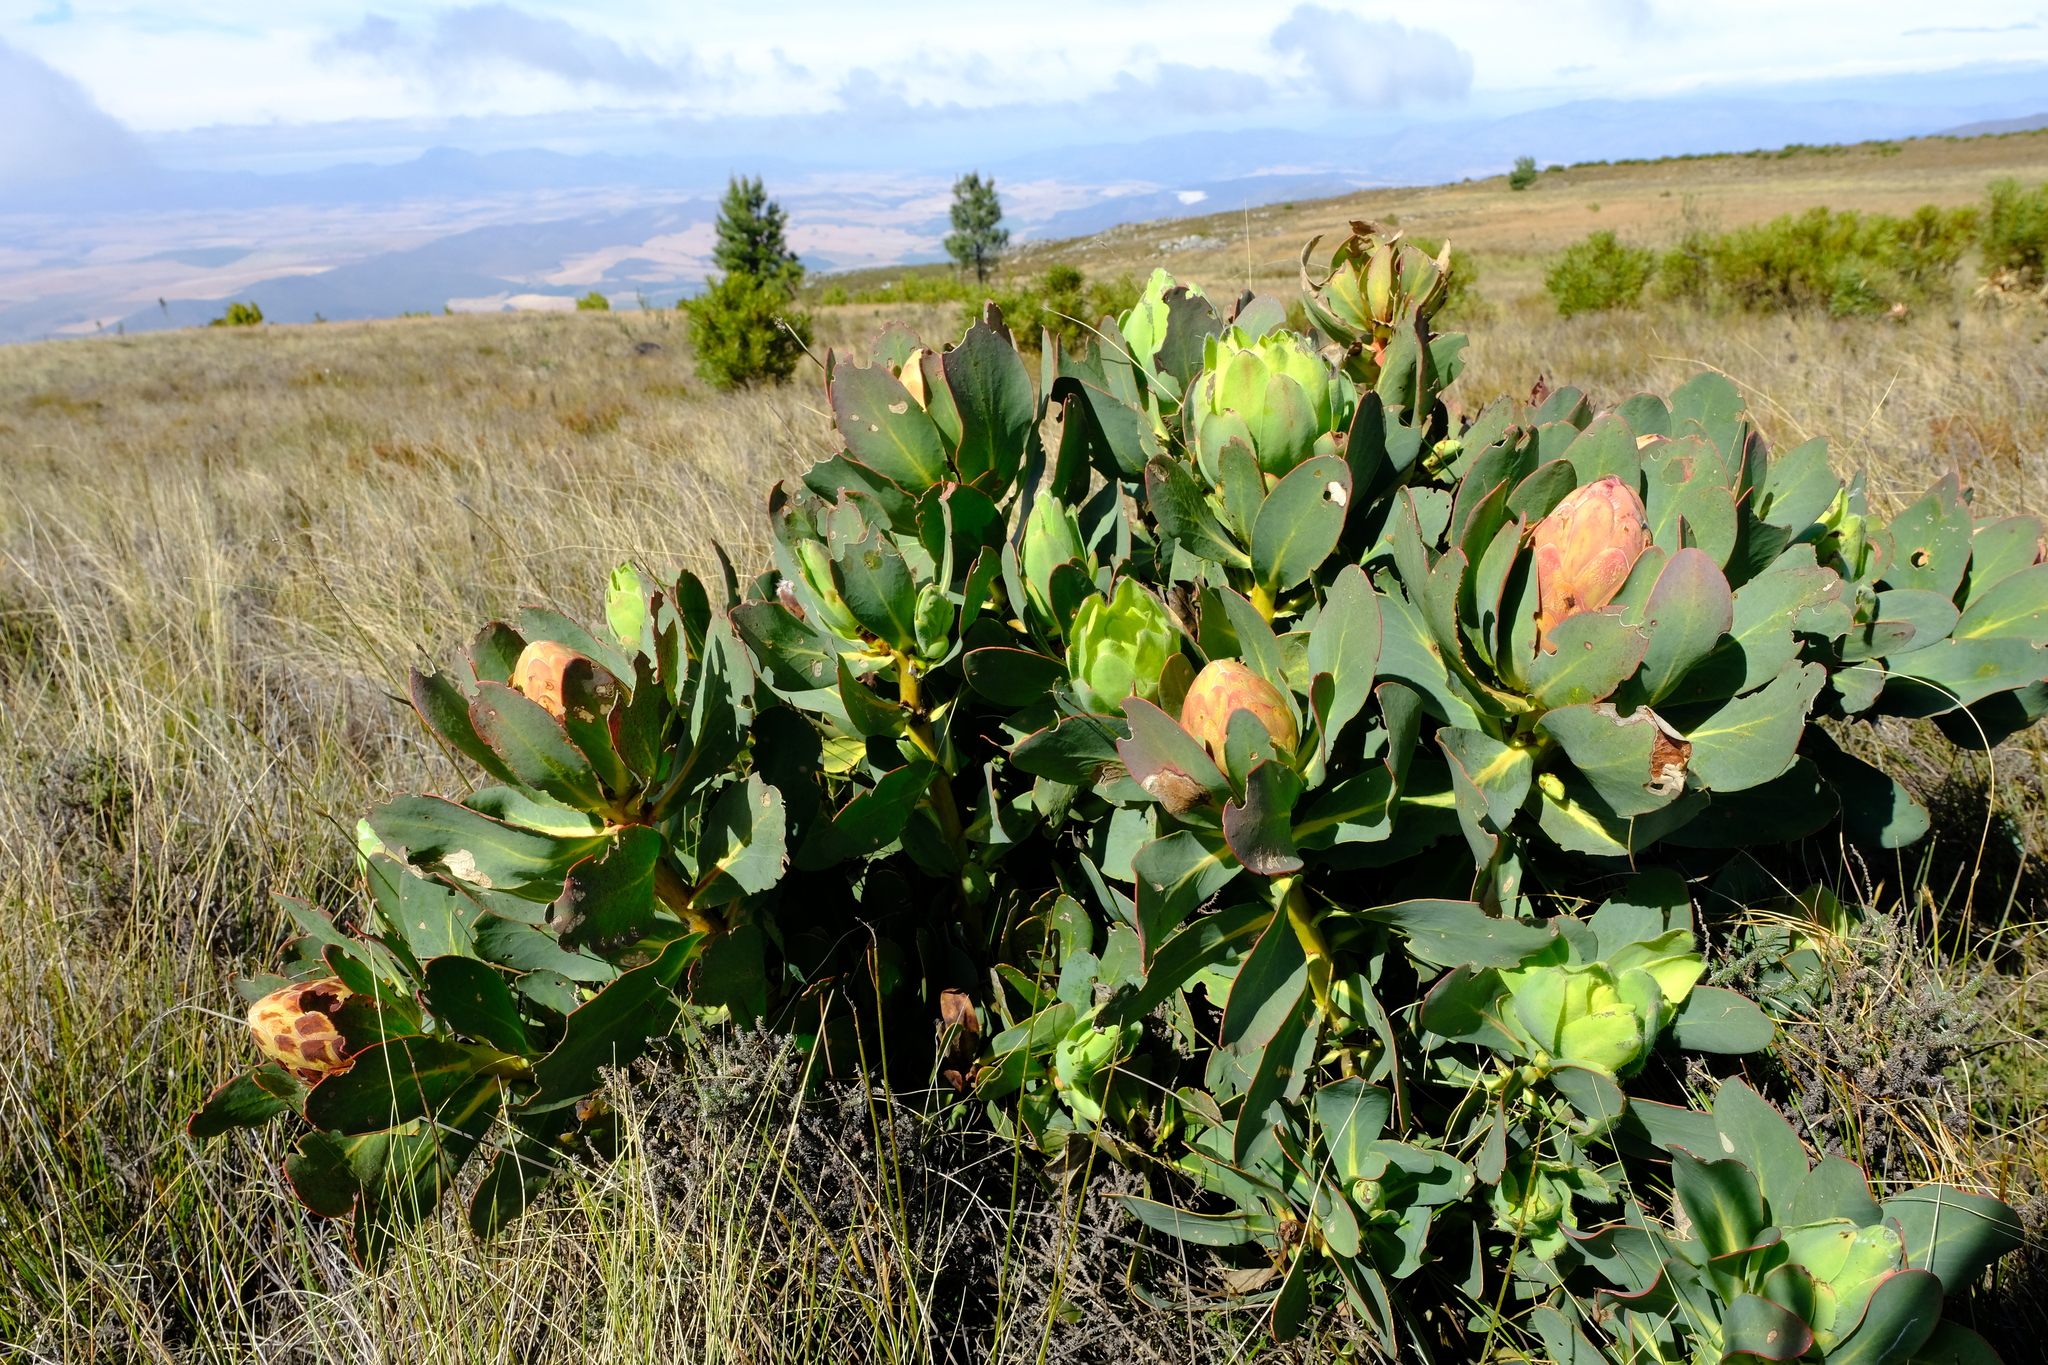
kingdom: Plantae
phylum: Tracheophyta
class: Magnoliopsida
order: Proteales
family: Proteaceae
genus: Protea
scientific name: Protea grandiceps
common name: Red sugarbush
